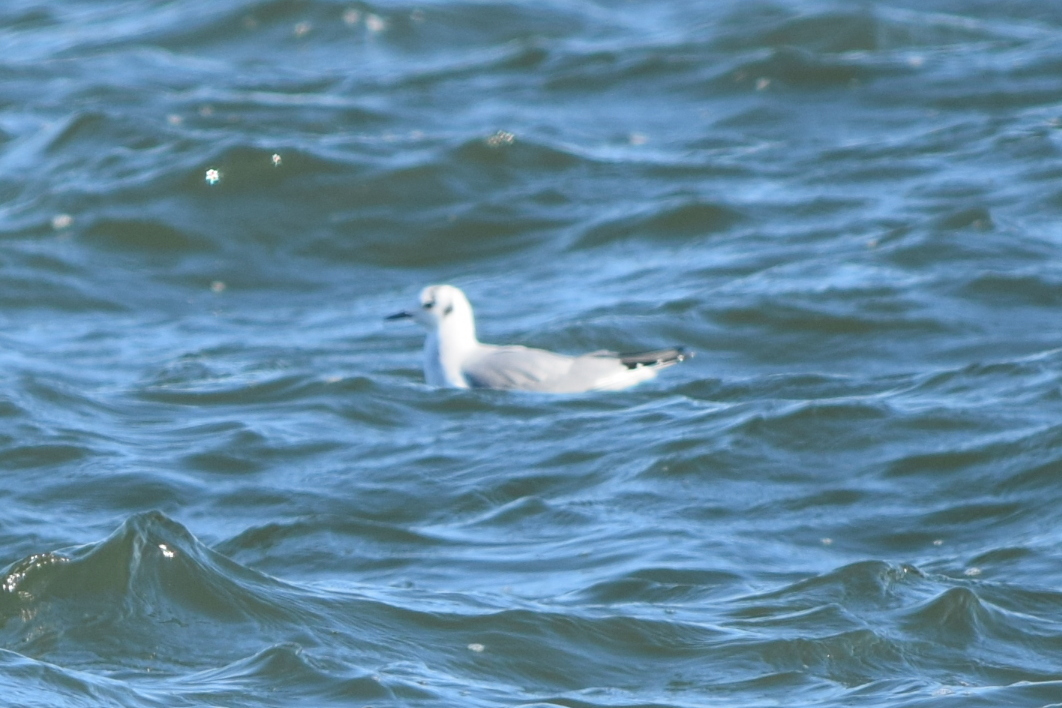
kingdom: Animalia
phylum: Chordata
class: Aves
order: Charadriiformes
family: Laridae
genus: Chroicocephalus
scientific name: Chroicocephalus philadelphia
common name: Bonaparte's gull
